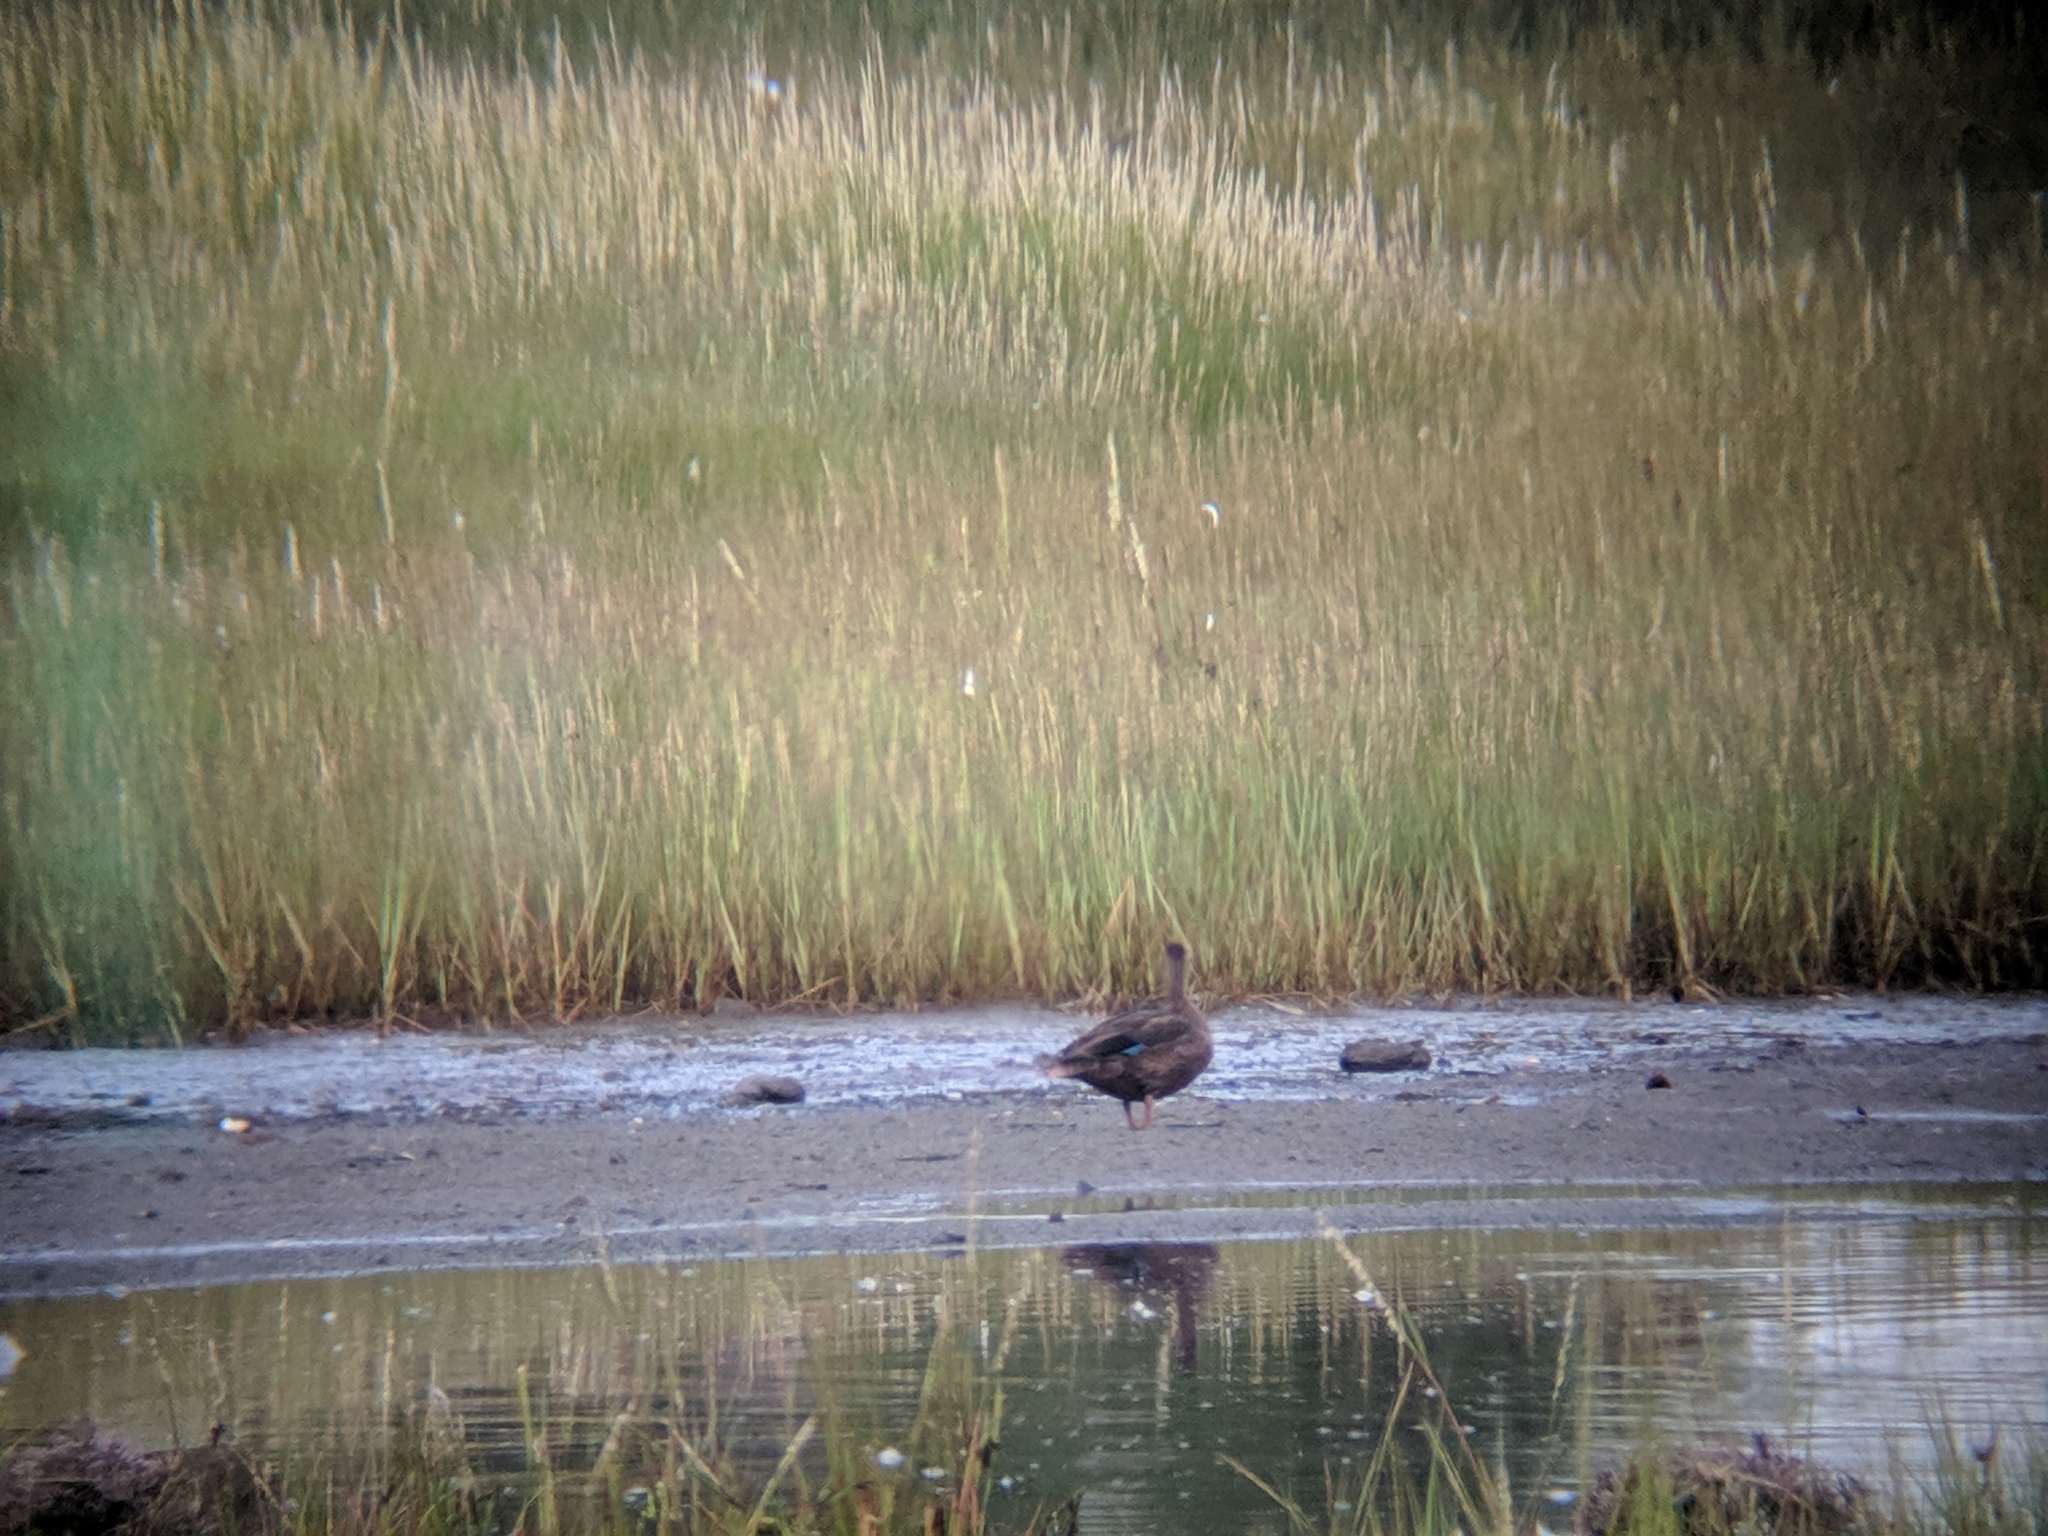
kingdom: Animalia
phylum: Chordata
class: Aves
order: Anseriformes
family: Anatidae
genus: Anas
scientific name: Anas rubripes
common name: American black duck
